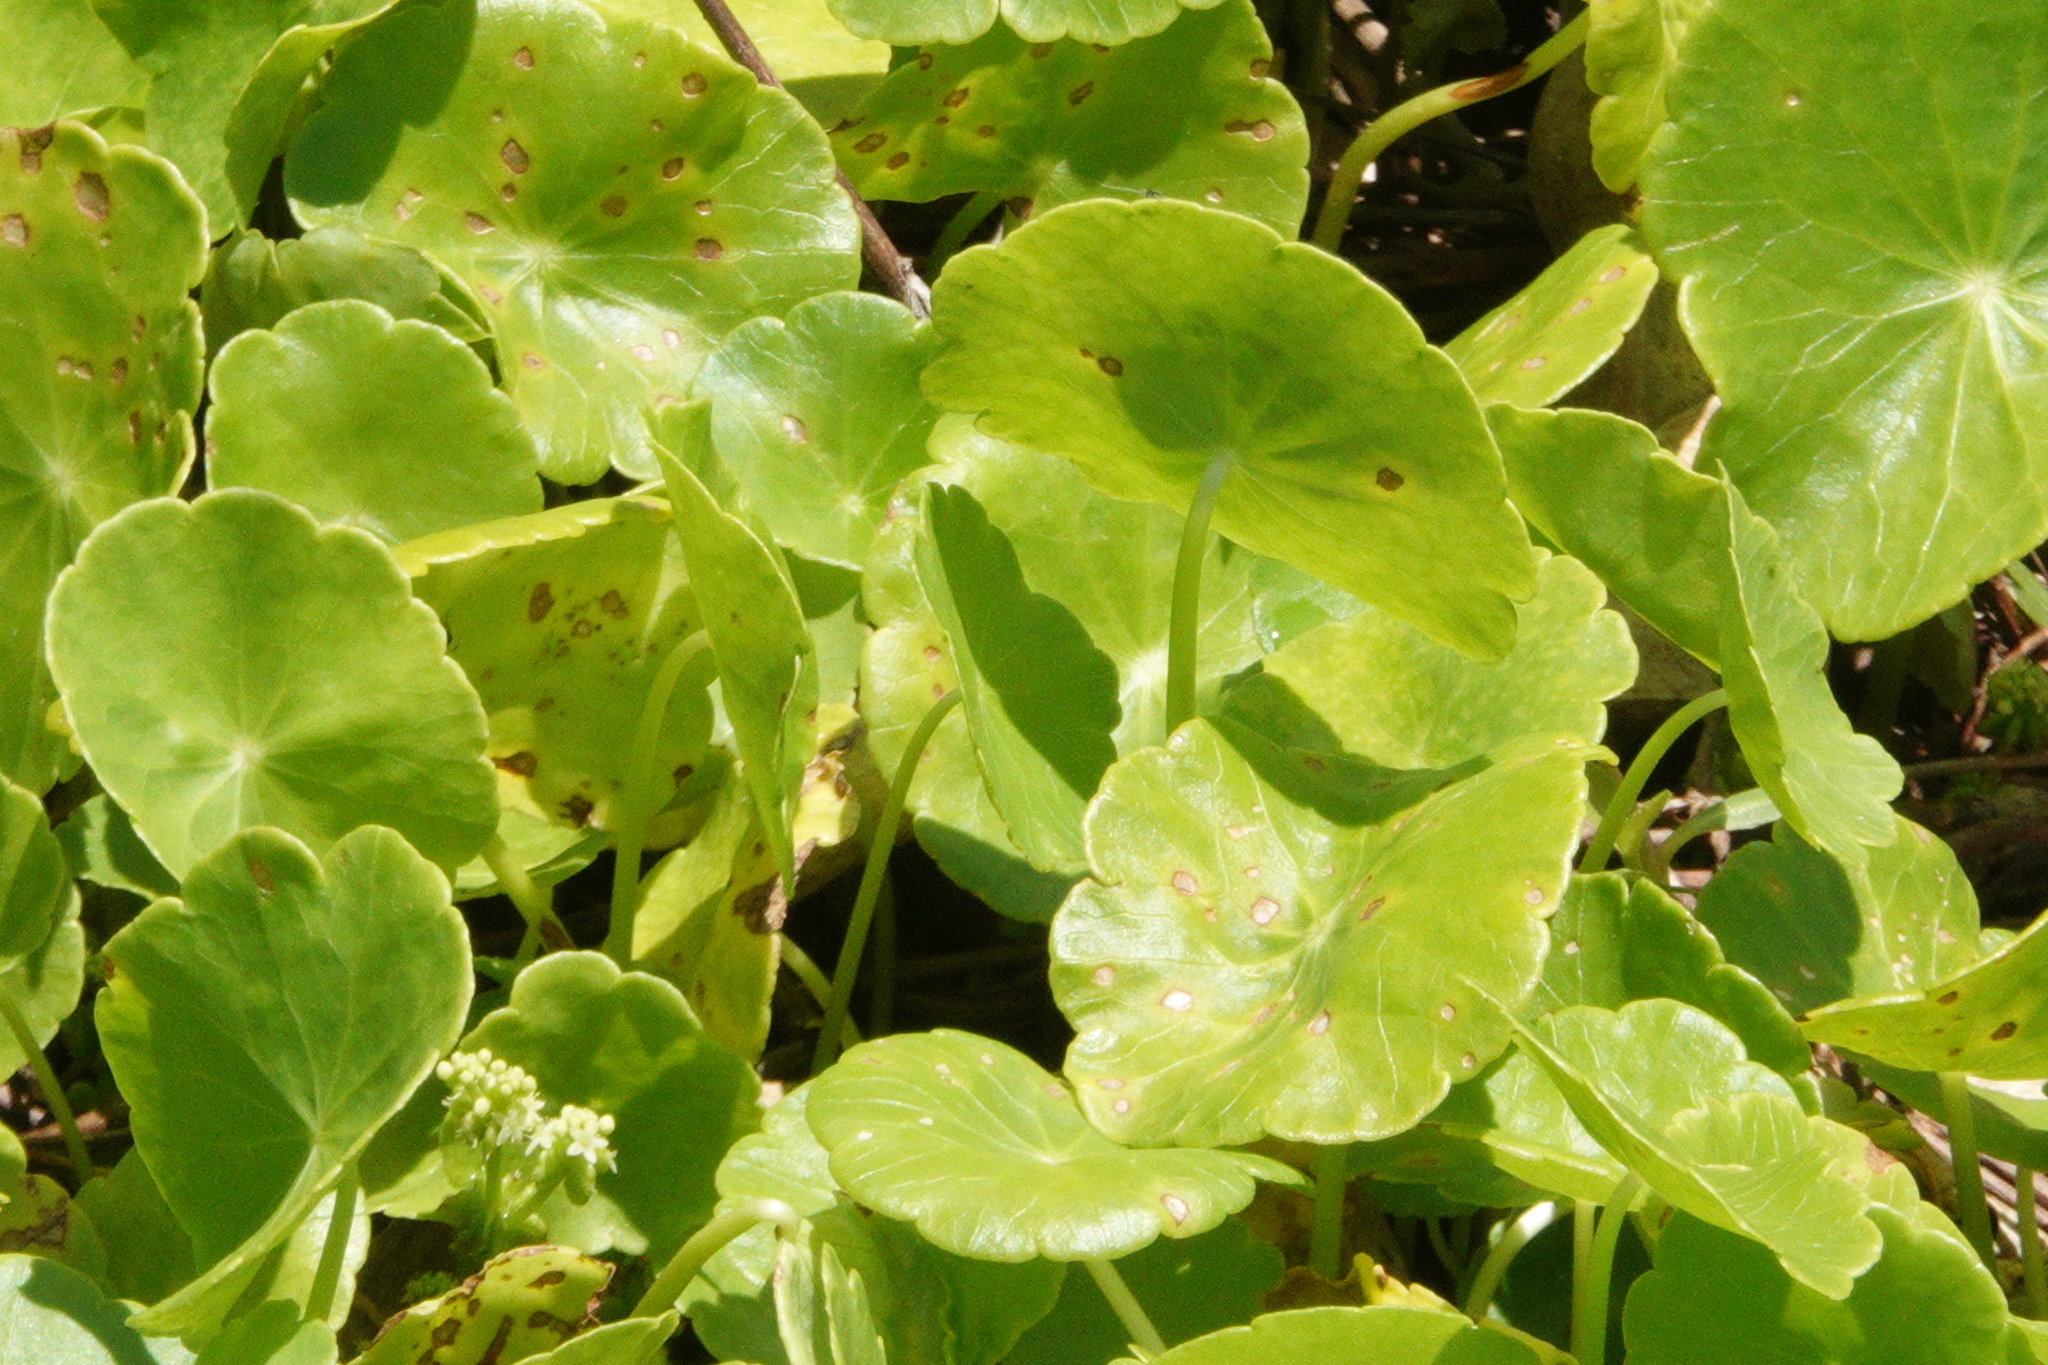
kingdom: Plantae
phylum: Tracheophyta
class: Magnoliopsida
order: Apiales
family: Araliaceae
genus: Hydrocotyle
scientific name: Hydrocotyle verticillata
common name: Whorled marshpennywort
